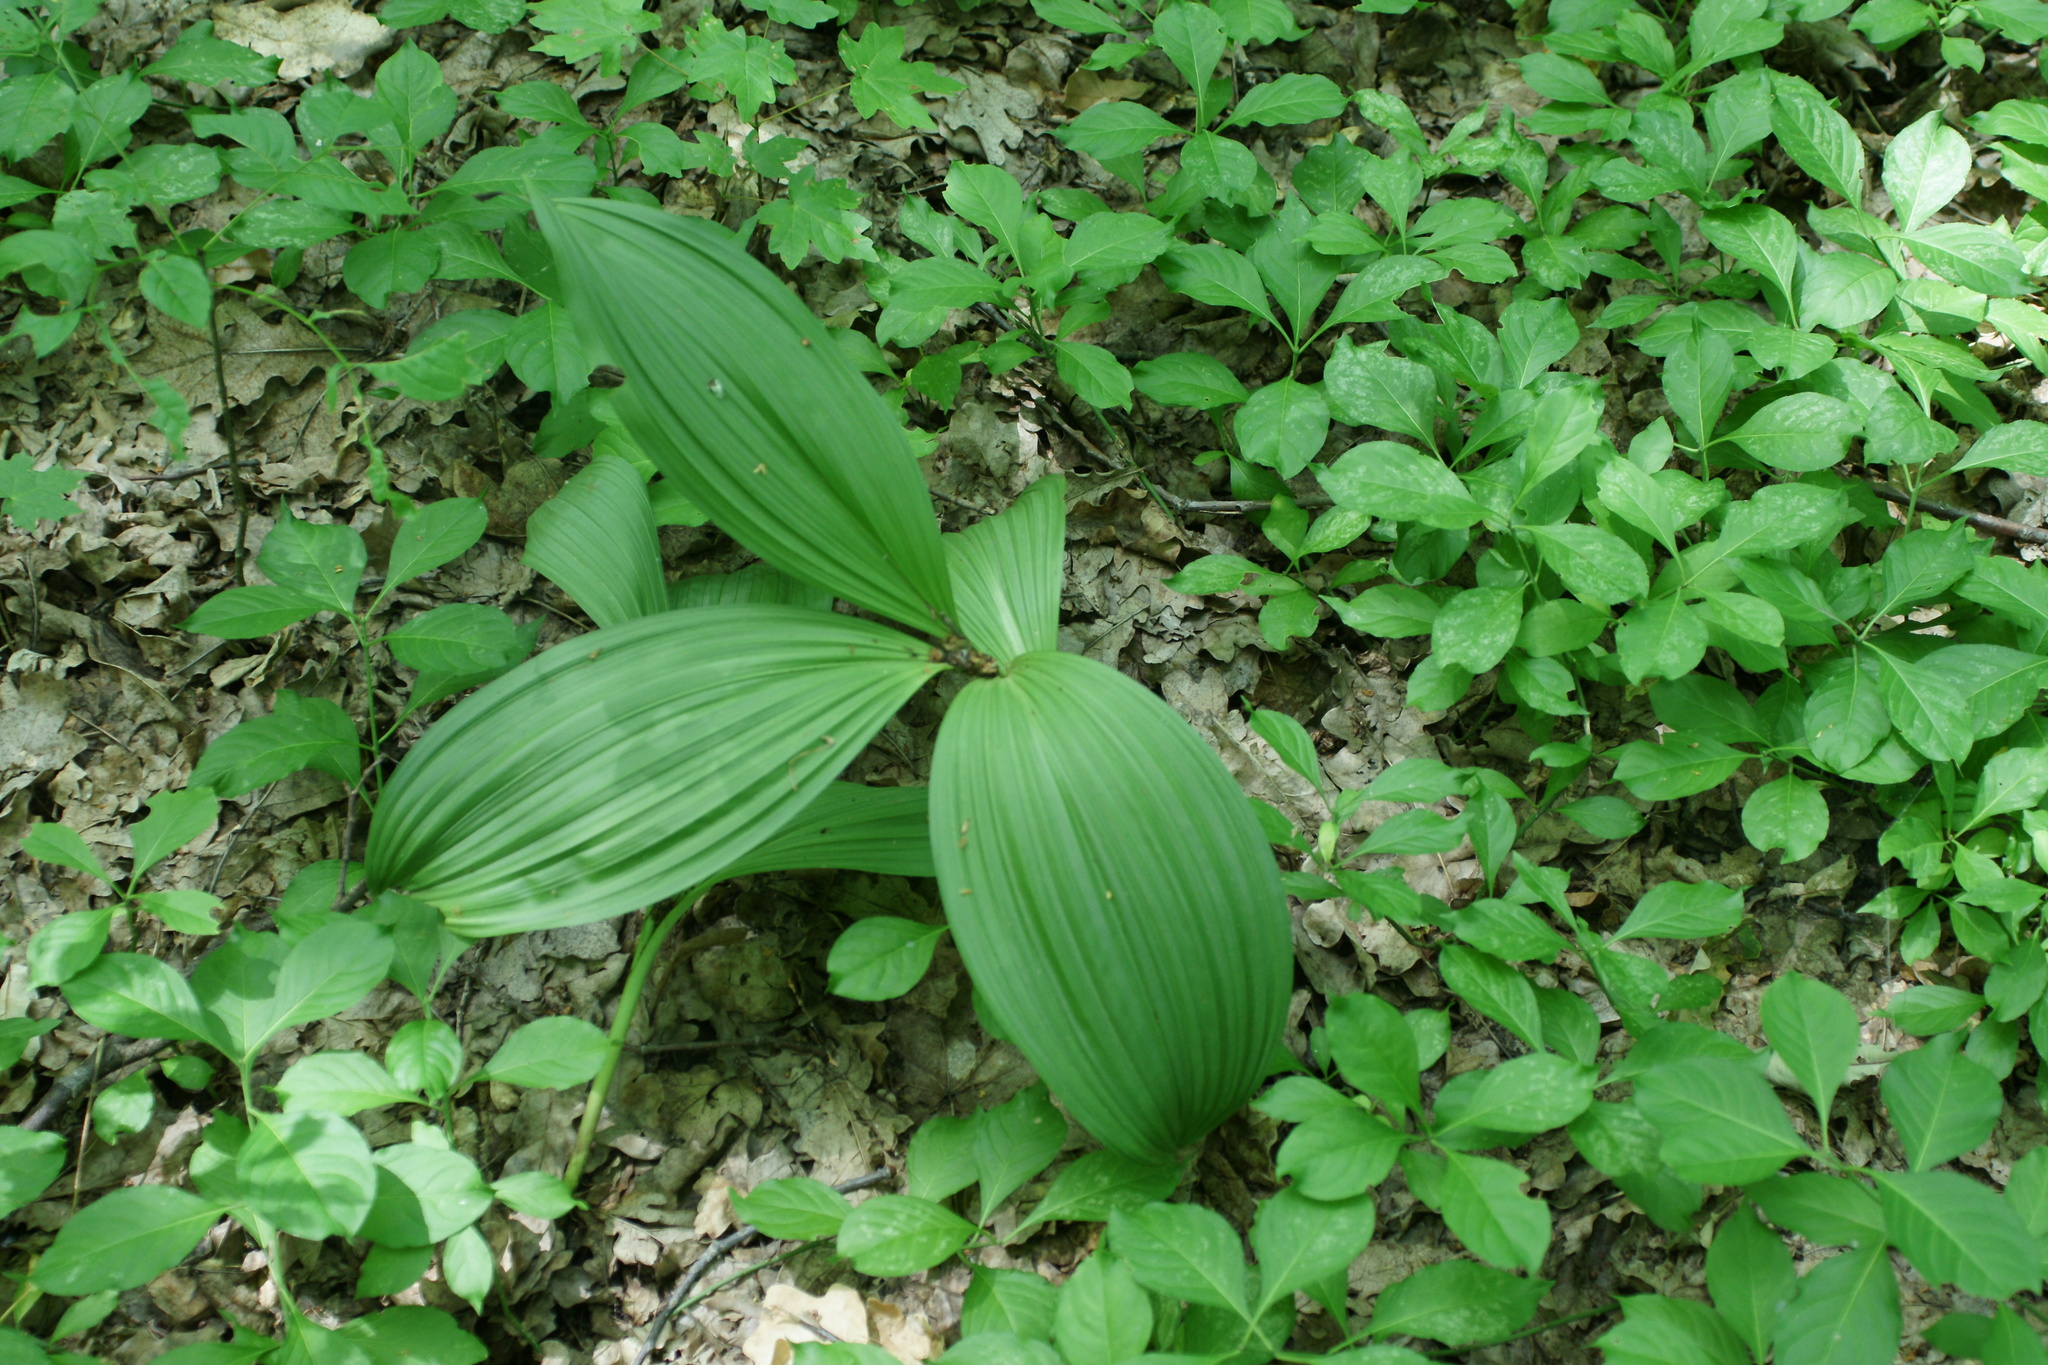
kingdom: Plantae
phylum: Tracheophyta
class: Liliopsida
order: Liliales
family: Melanthiaceae
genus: Veratrum
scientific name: Veratrum nigrum
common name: Black veratrum
